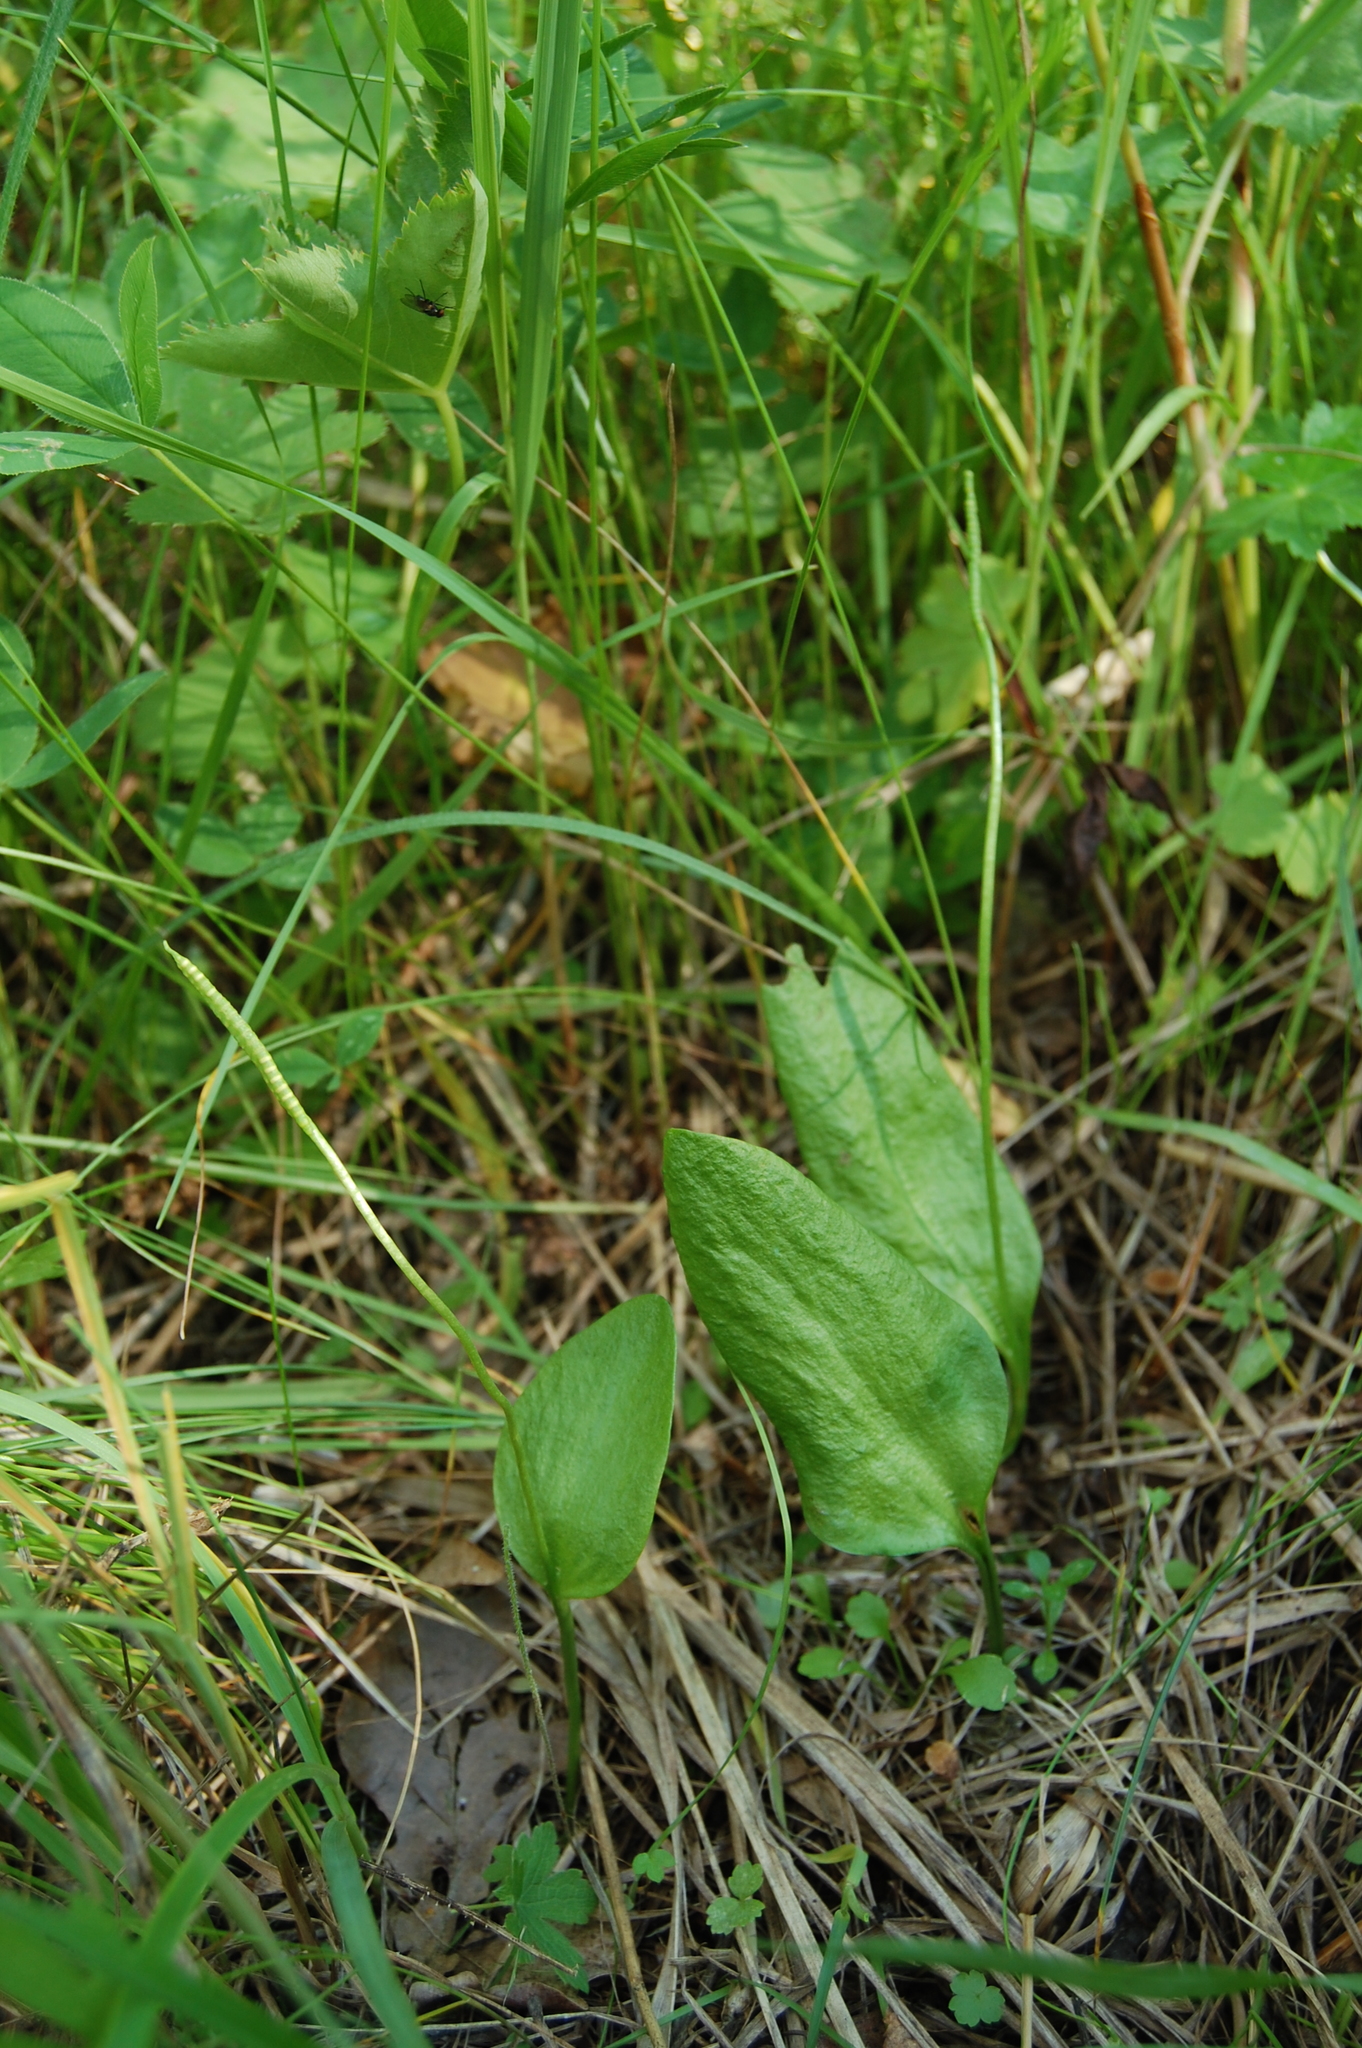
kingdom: Plantae
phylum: Tracheophyta
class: Polypodiopsida
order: Ophioglossales
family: Ophioglossaceae
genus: Ophioglossum
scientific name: Ophioglossum vulgatum
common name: Adder's-tongue
